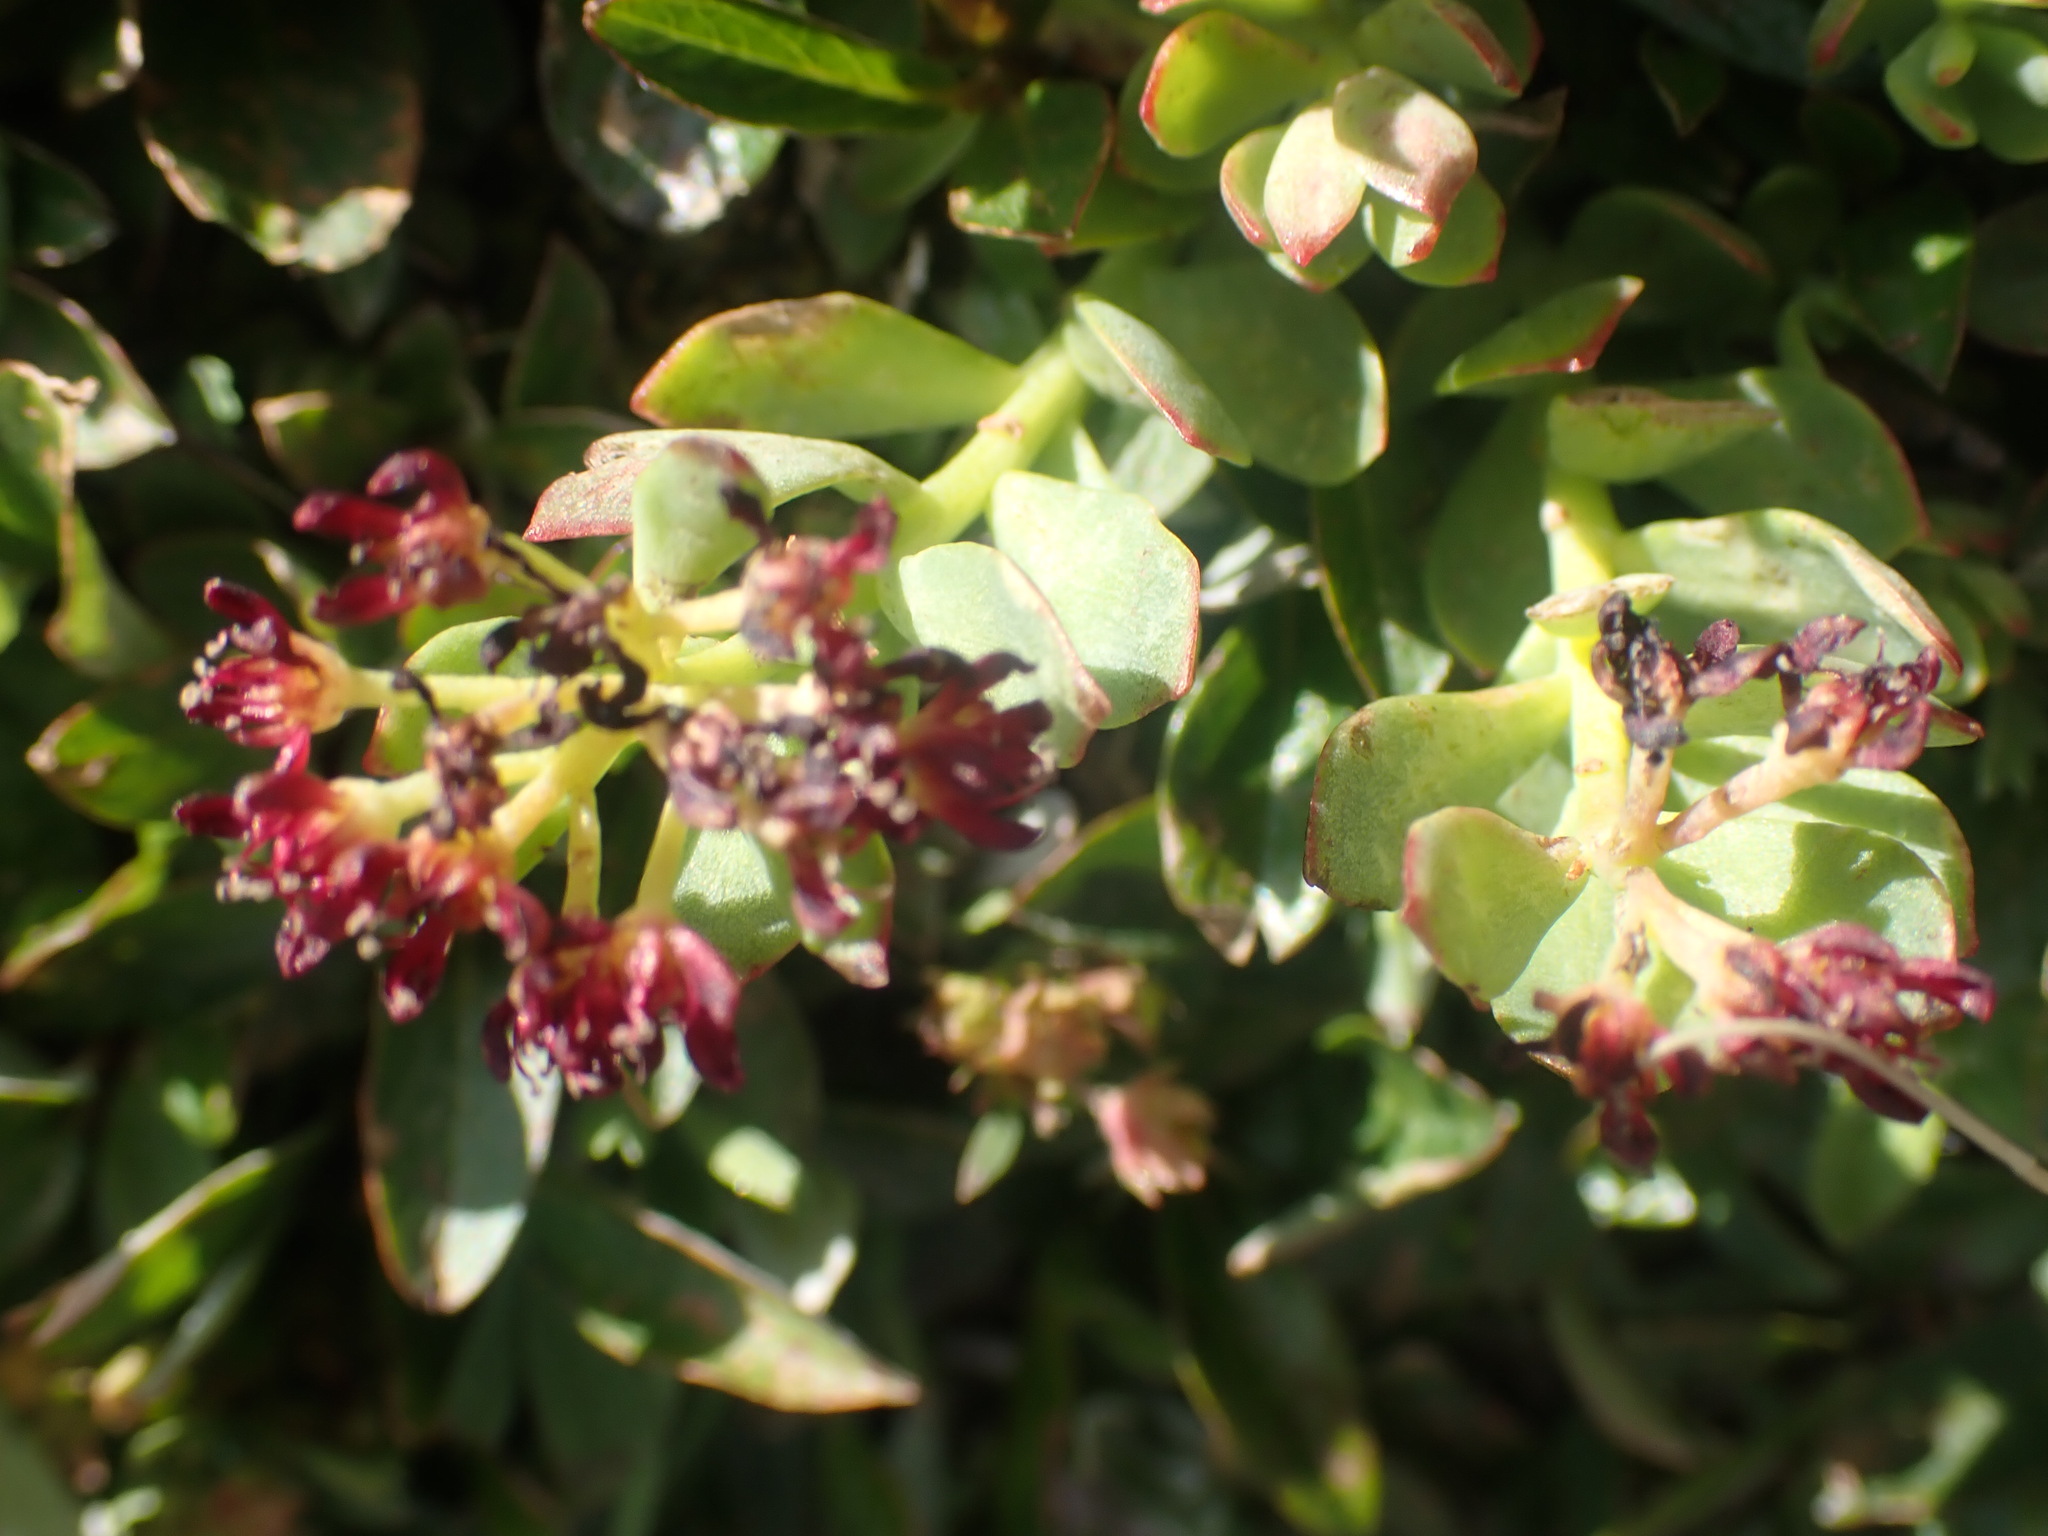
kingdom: Plantae
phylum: Tracheophyta
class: Magnoliopsida
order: Saxifragales
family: Crassulaceae
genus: Rhodiola
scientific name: Rhodiola integrifolia
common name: Western roseroot
